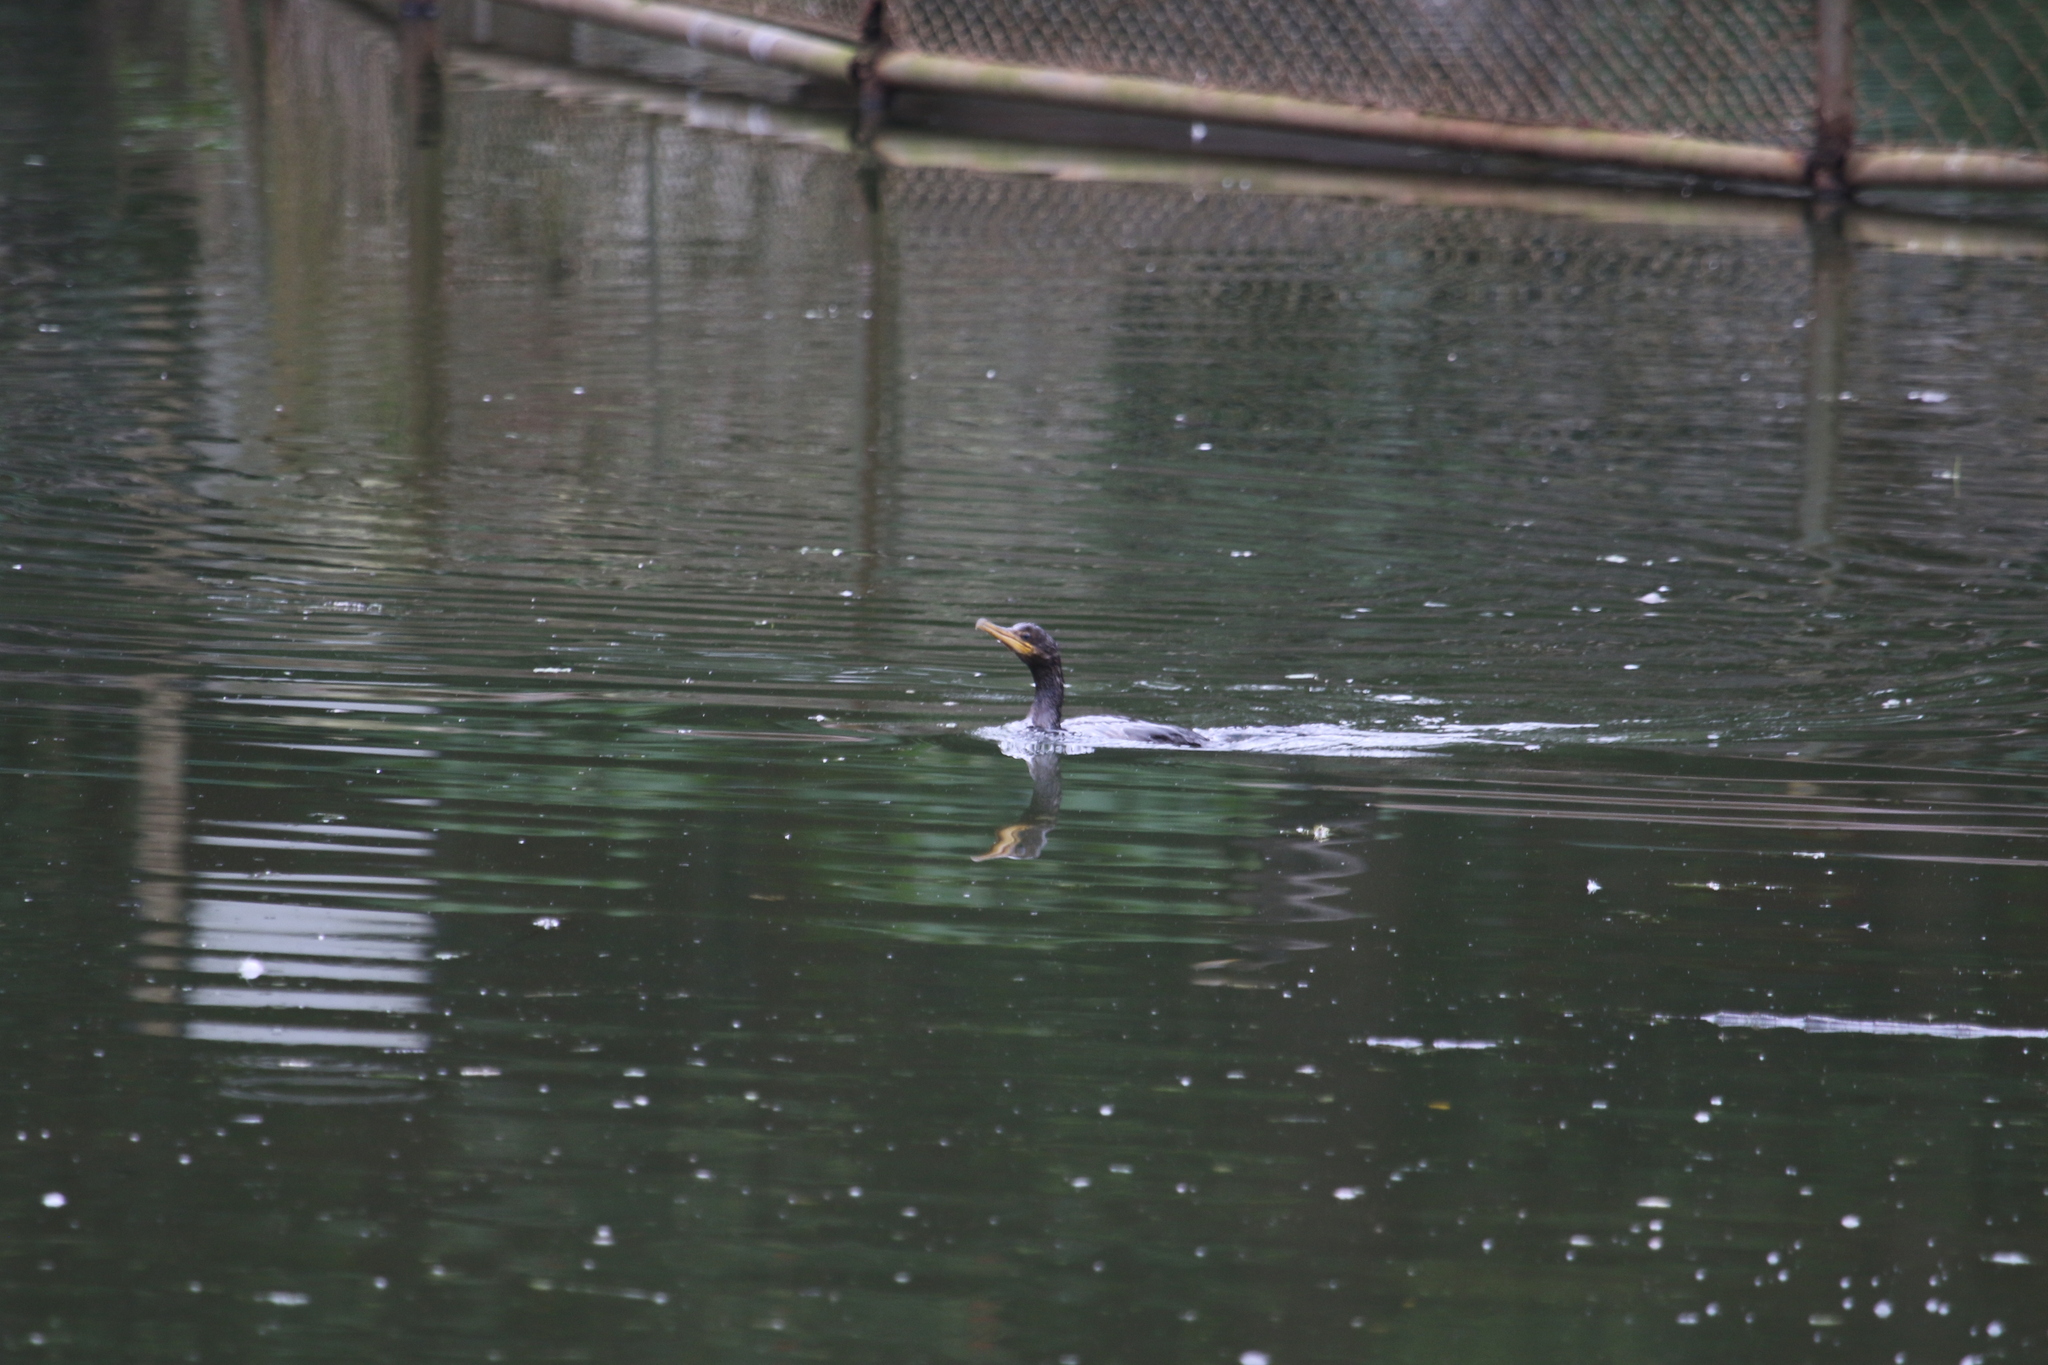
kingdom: Animalia
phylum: Chordata
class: Aves
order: Suliformes
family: Phalacrocoracidae
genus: Phalacrocorax
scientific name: Phalacrocorax brasilianus
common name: Neotropic cormorant
